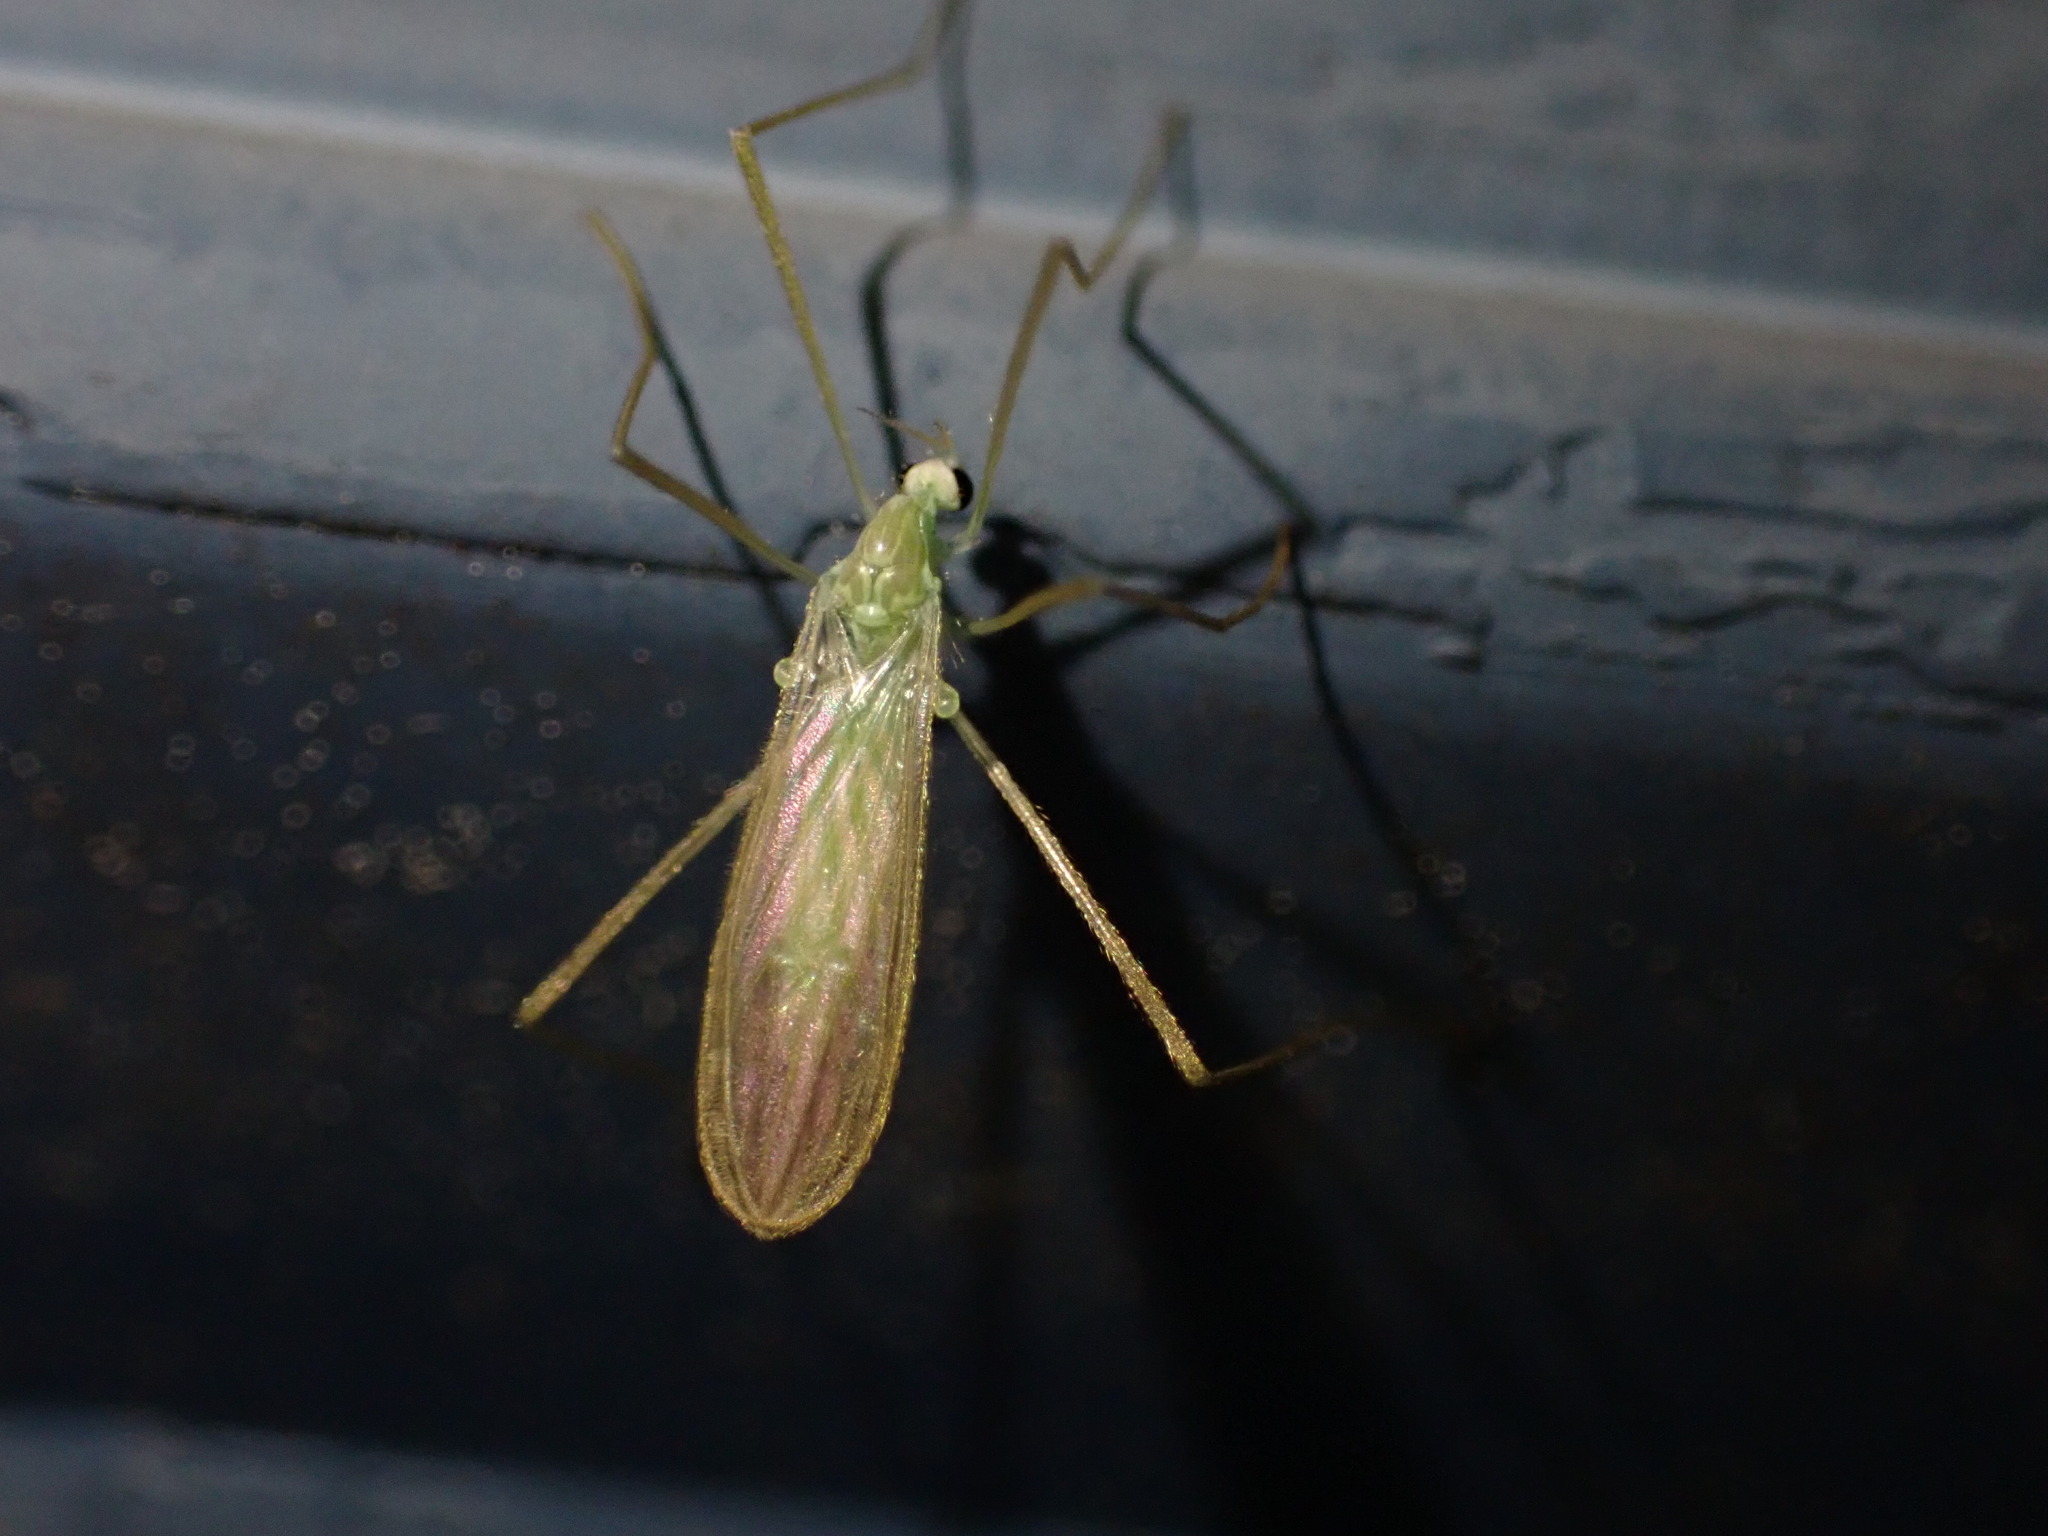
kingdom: Animalia
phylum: Arthropoda
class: Insecta
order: Diptera
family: Limoniidae
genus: Erioptera
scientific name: Erioptera
